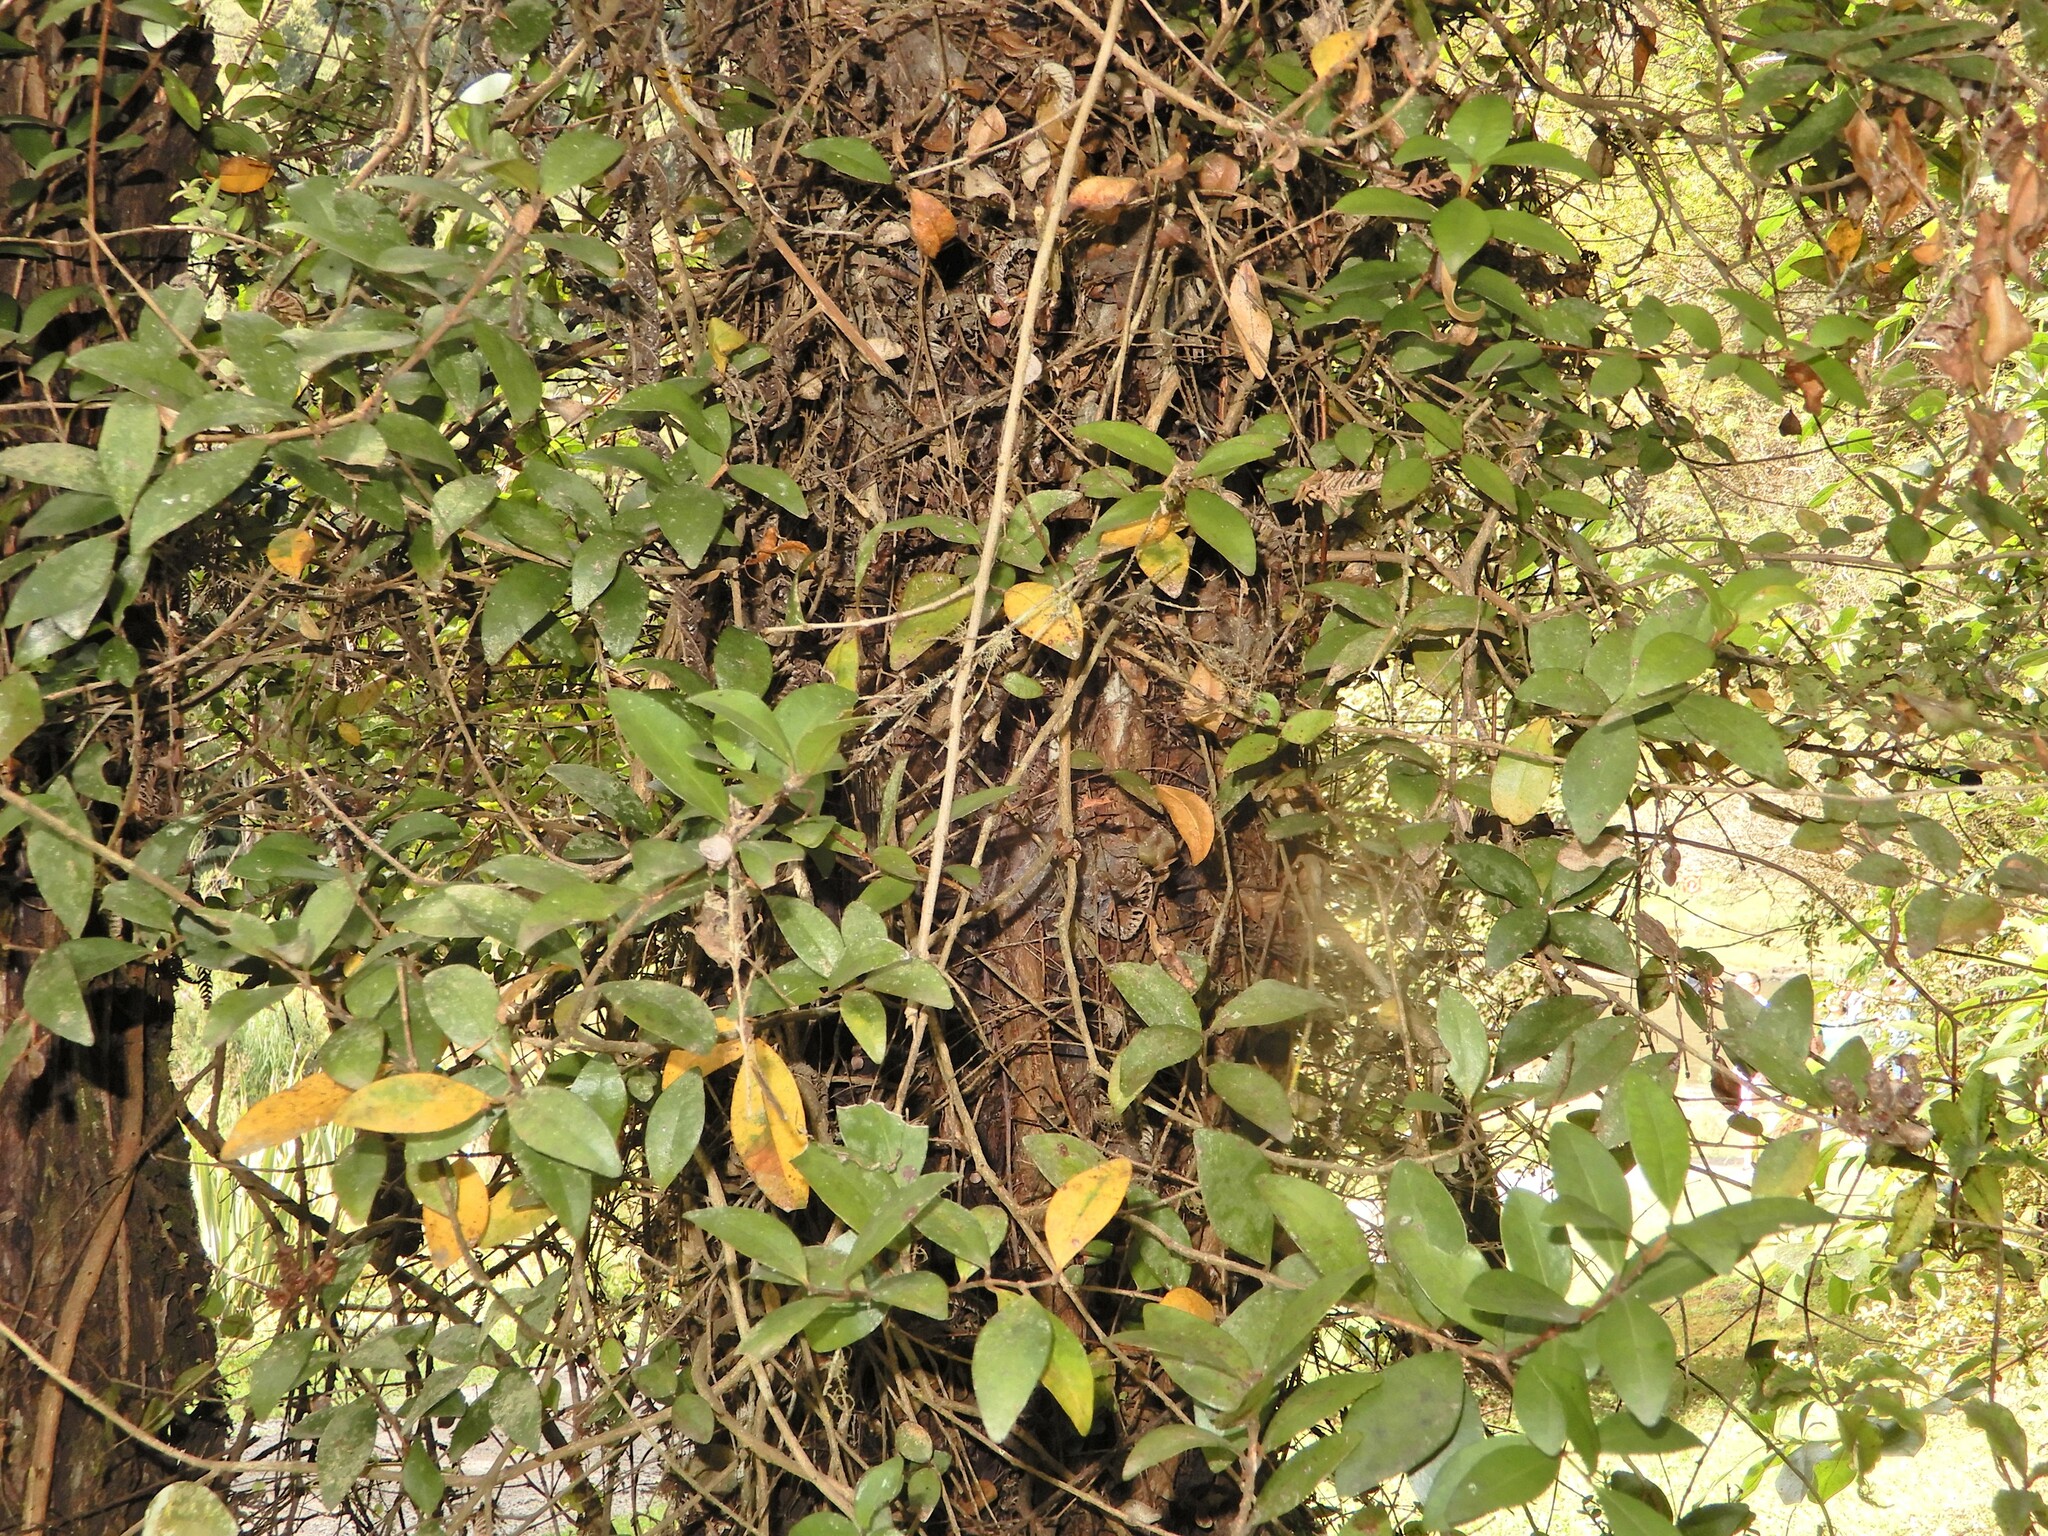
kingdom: Plantae
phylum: Tracheophyta
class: Magnoliopsida
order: Myrtales
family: Myrtaceae
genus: Metrosideros
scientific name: Metrosideros fulgens
